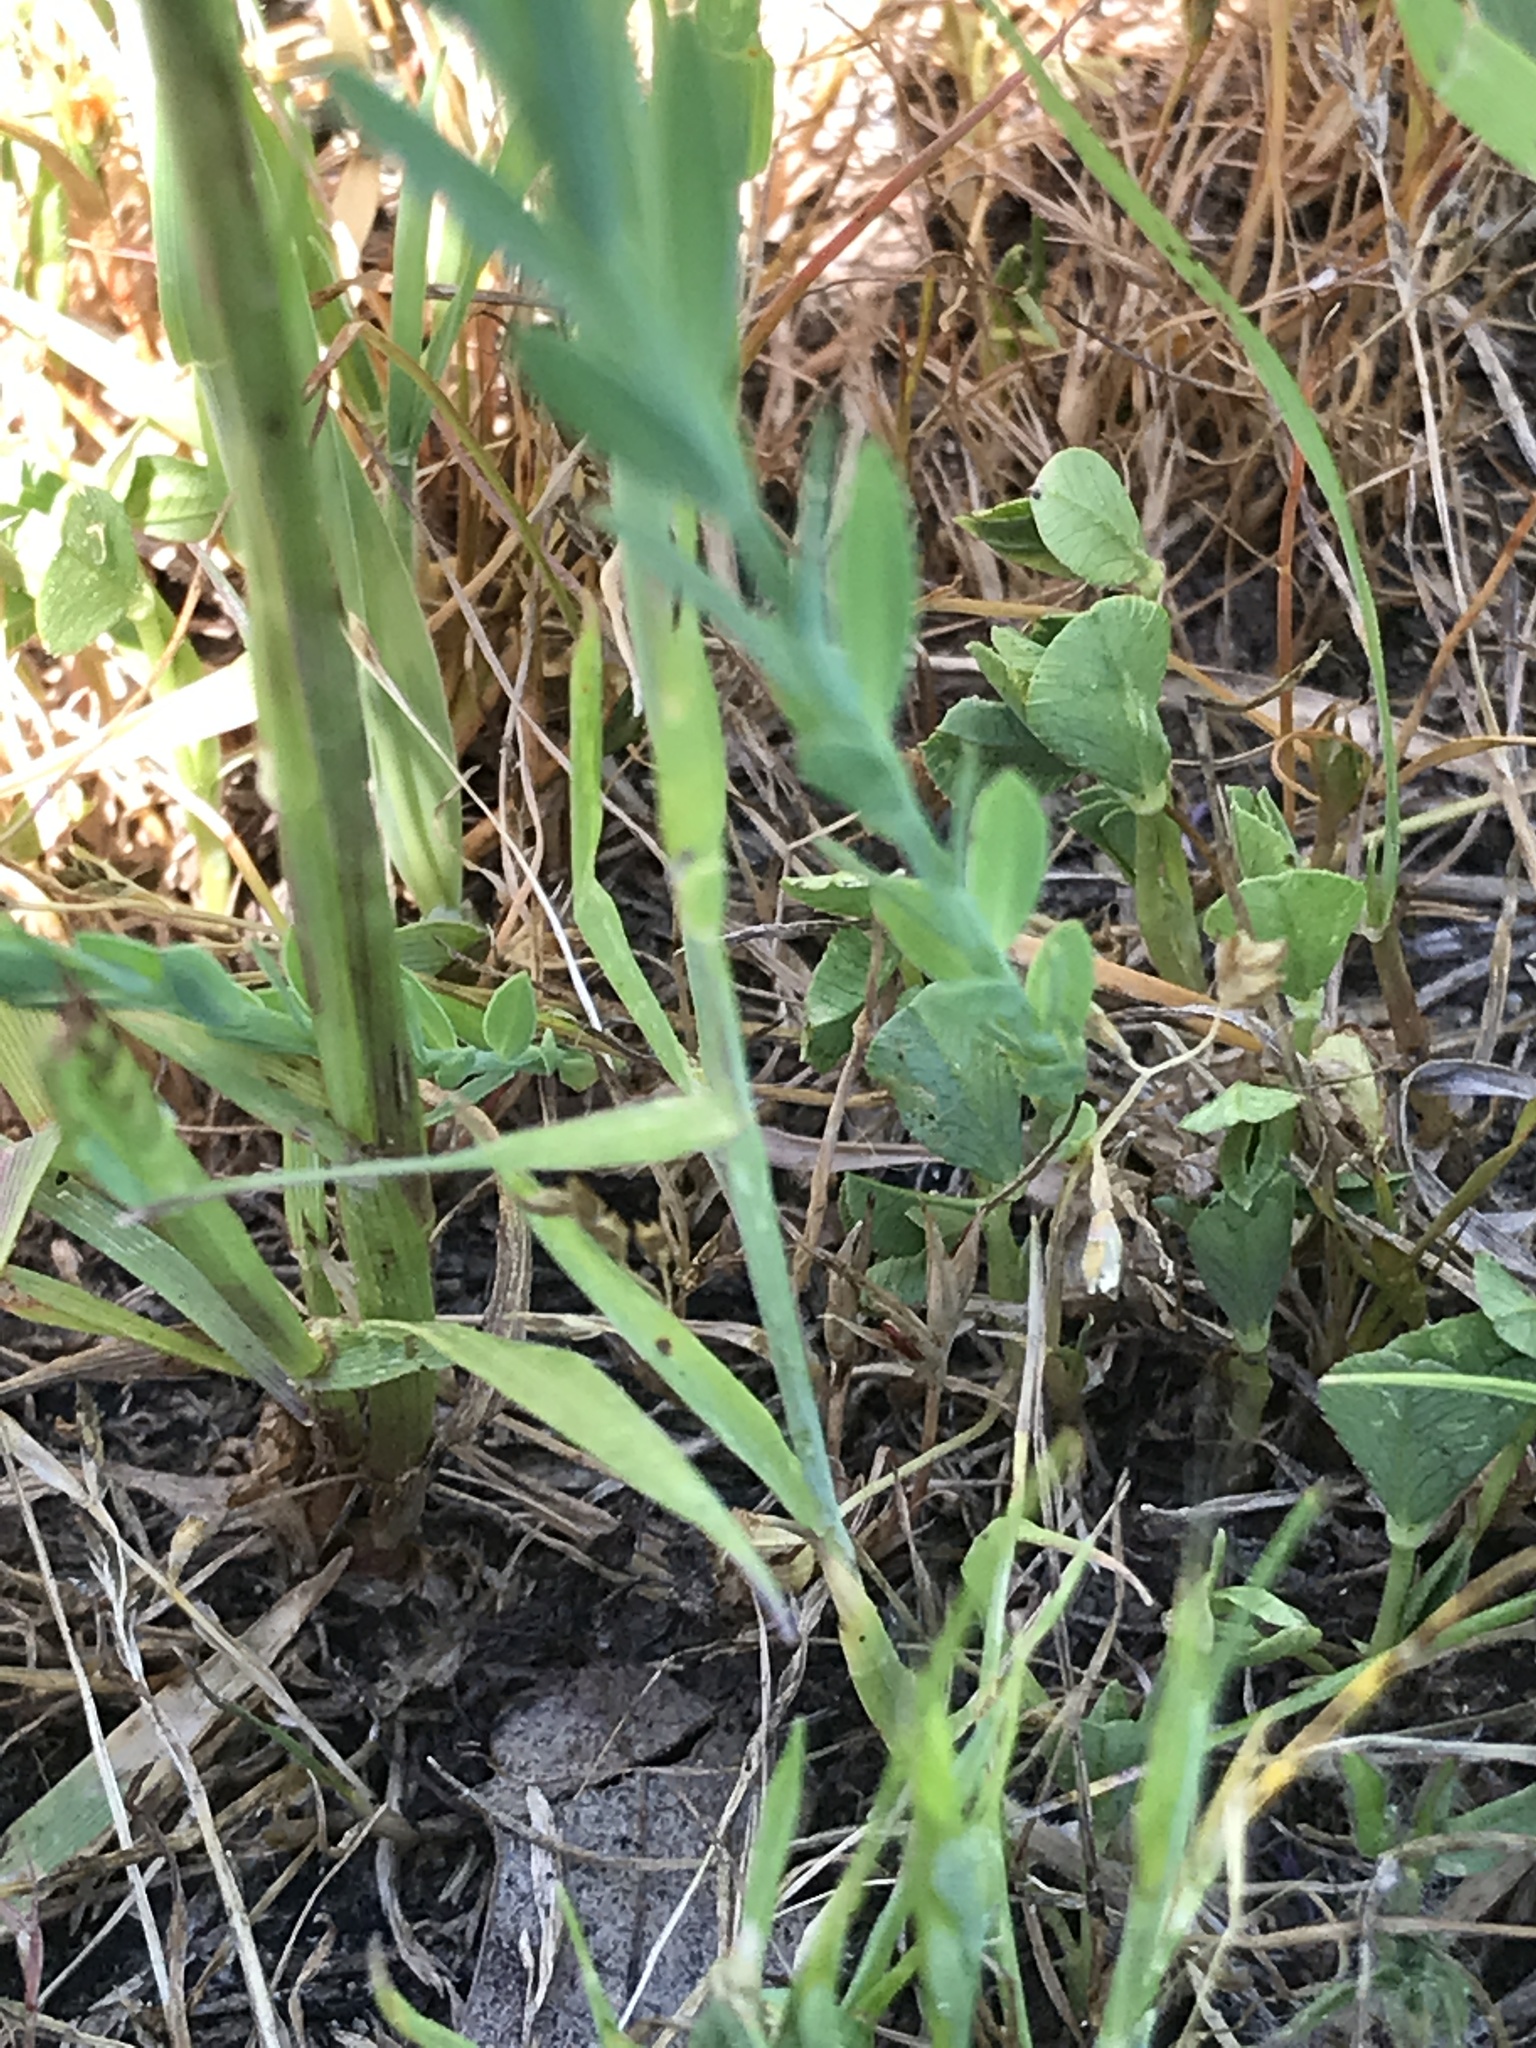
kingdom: Plantae
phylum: Tracheophyta
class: Magnoliopsida
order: Malpighiales
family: Linaceae
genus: Linum
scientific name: Linum bienne
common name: Pale flax
